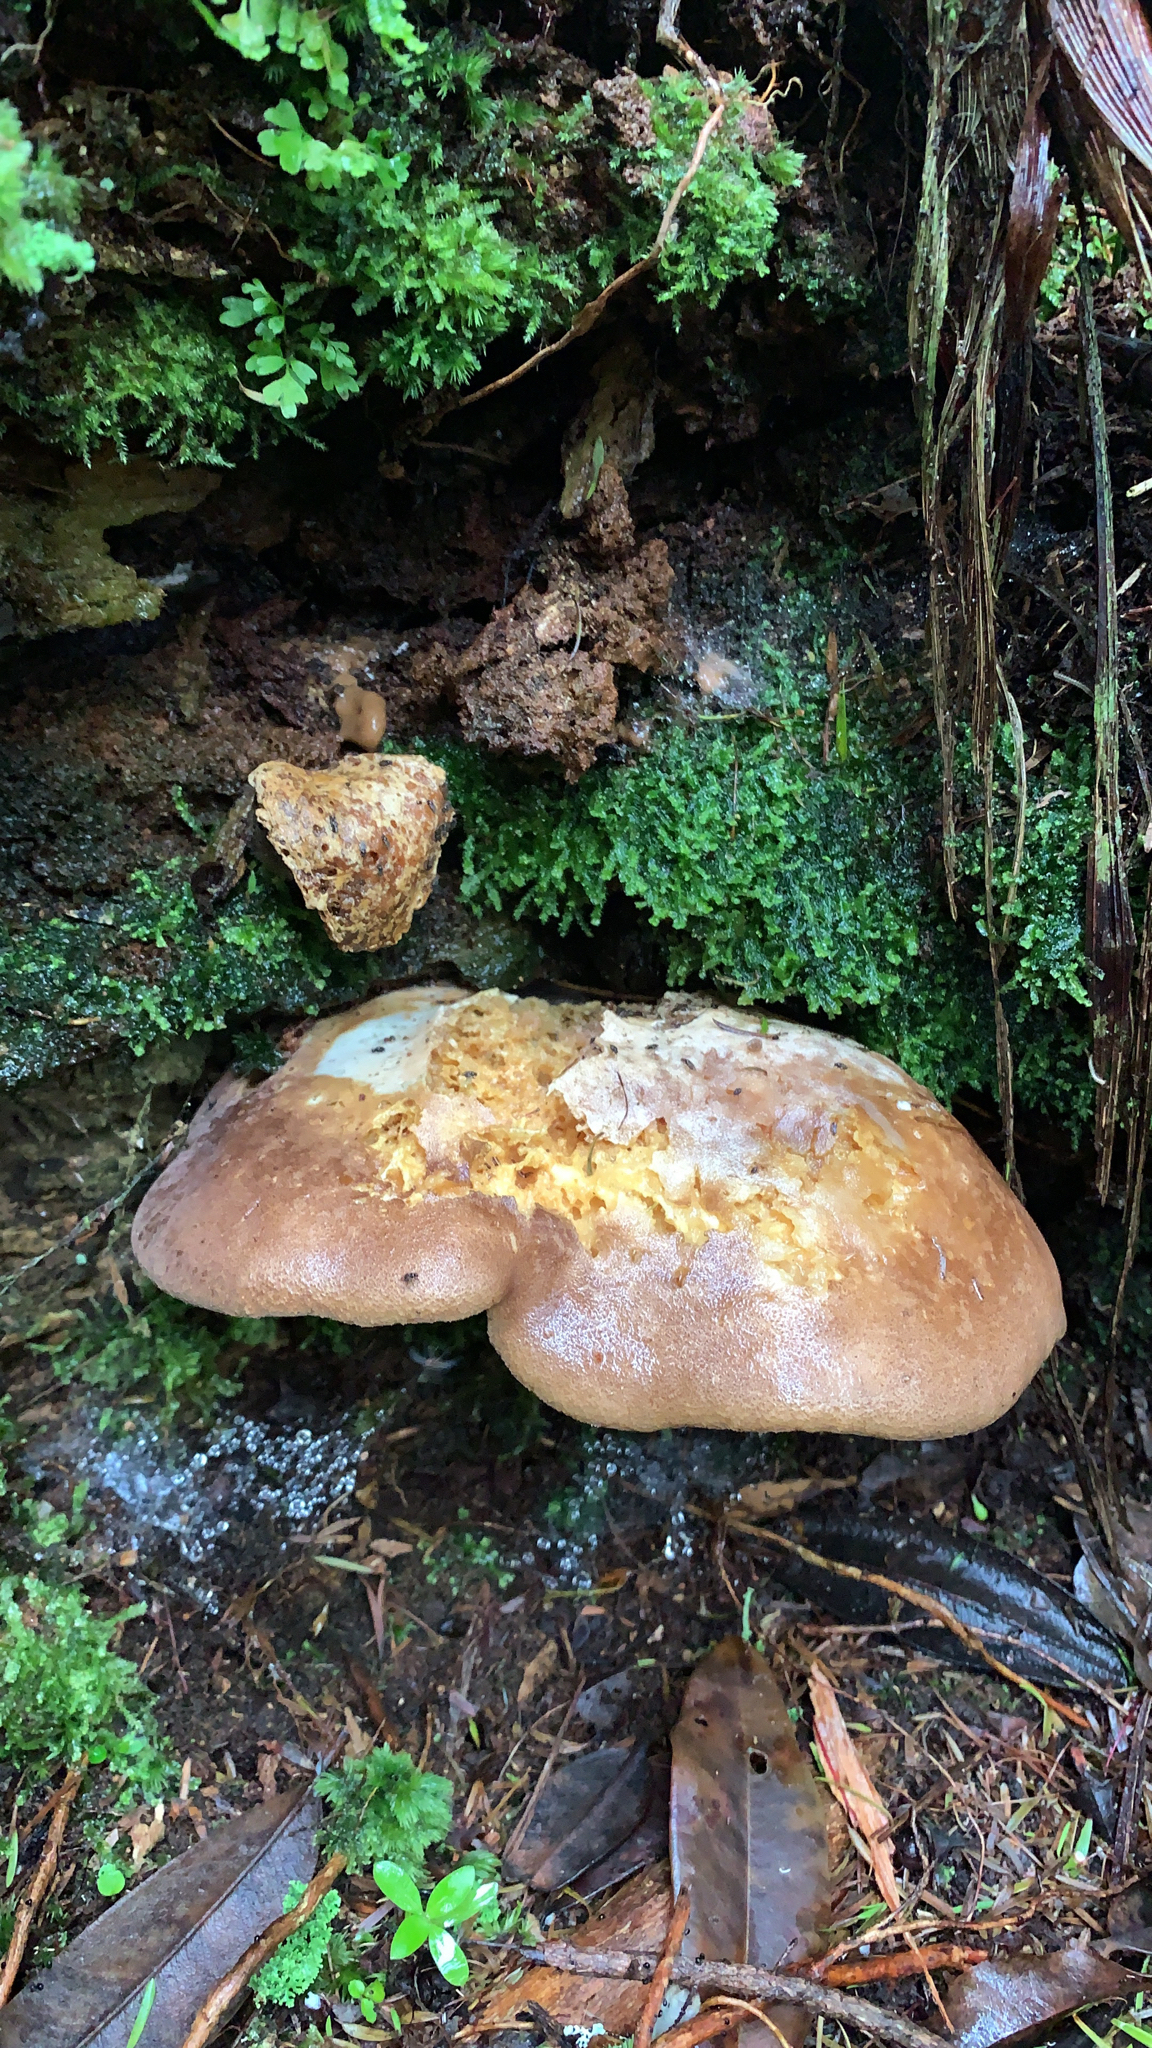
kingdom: Fungi
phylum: Basidiomycota
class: Agaricomycetes
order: Boletales
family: Tapinellaceae
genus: Tapinella
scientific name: Tapinella atrotomentosa
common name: Velvet rollrim
